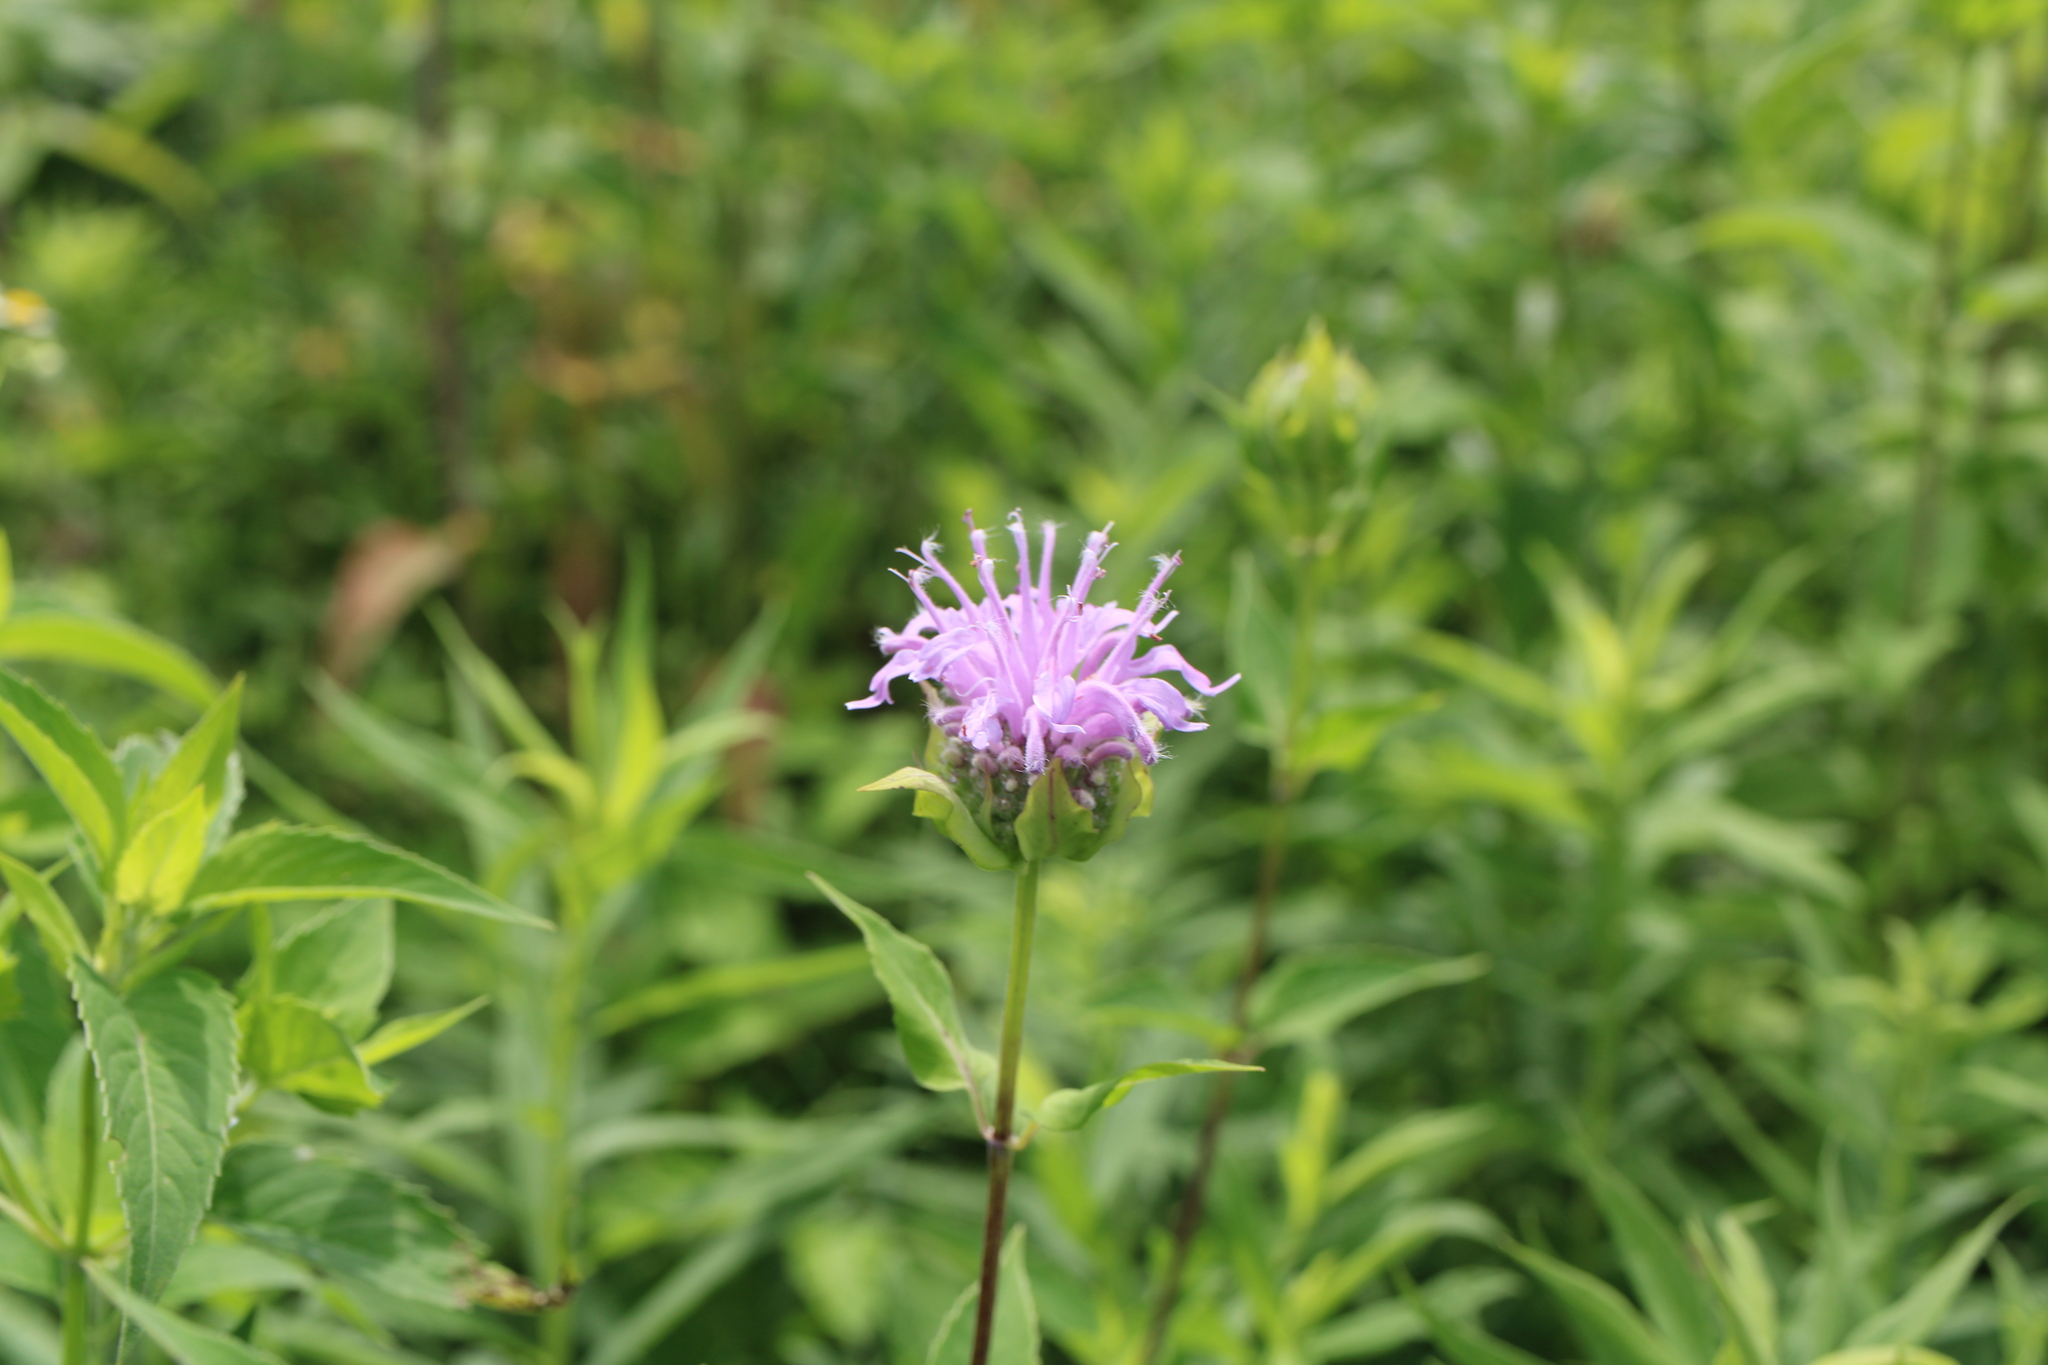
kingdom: Plantae
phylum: Tracheophyta
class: Magnoliopsida
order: Lamiales
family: Lamiaceae
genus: Monarda
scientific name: Monarda fistulosa
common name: Purple beebalm
